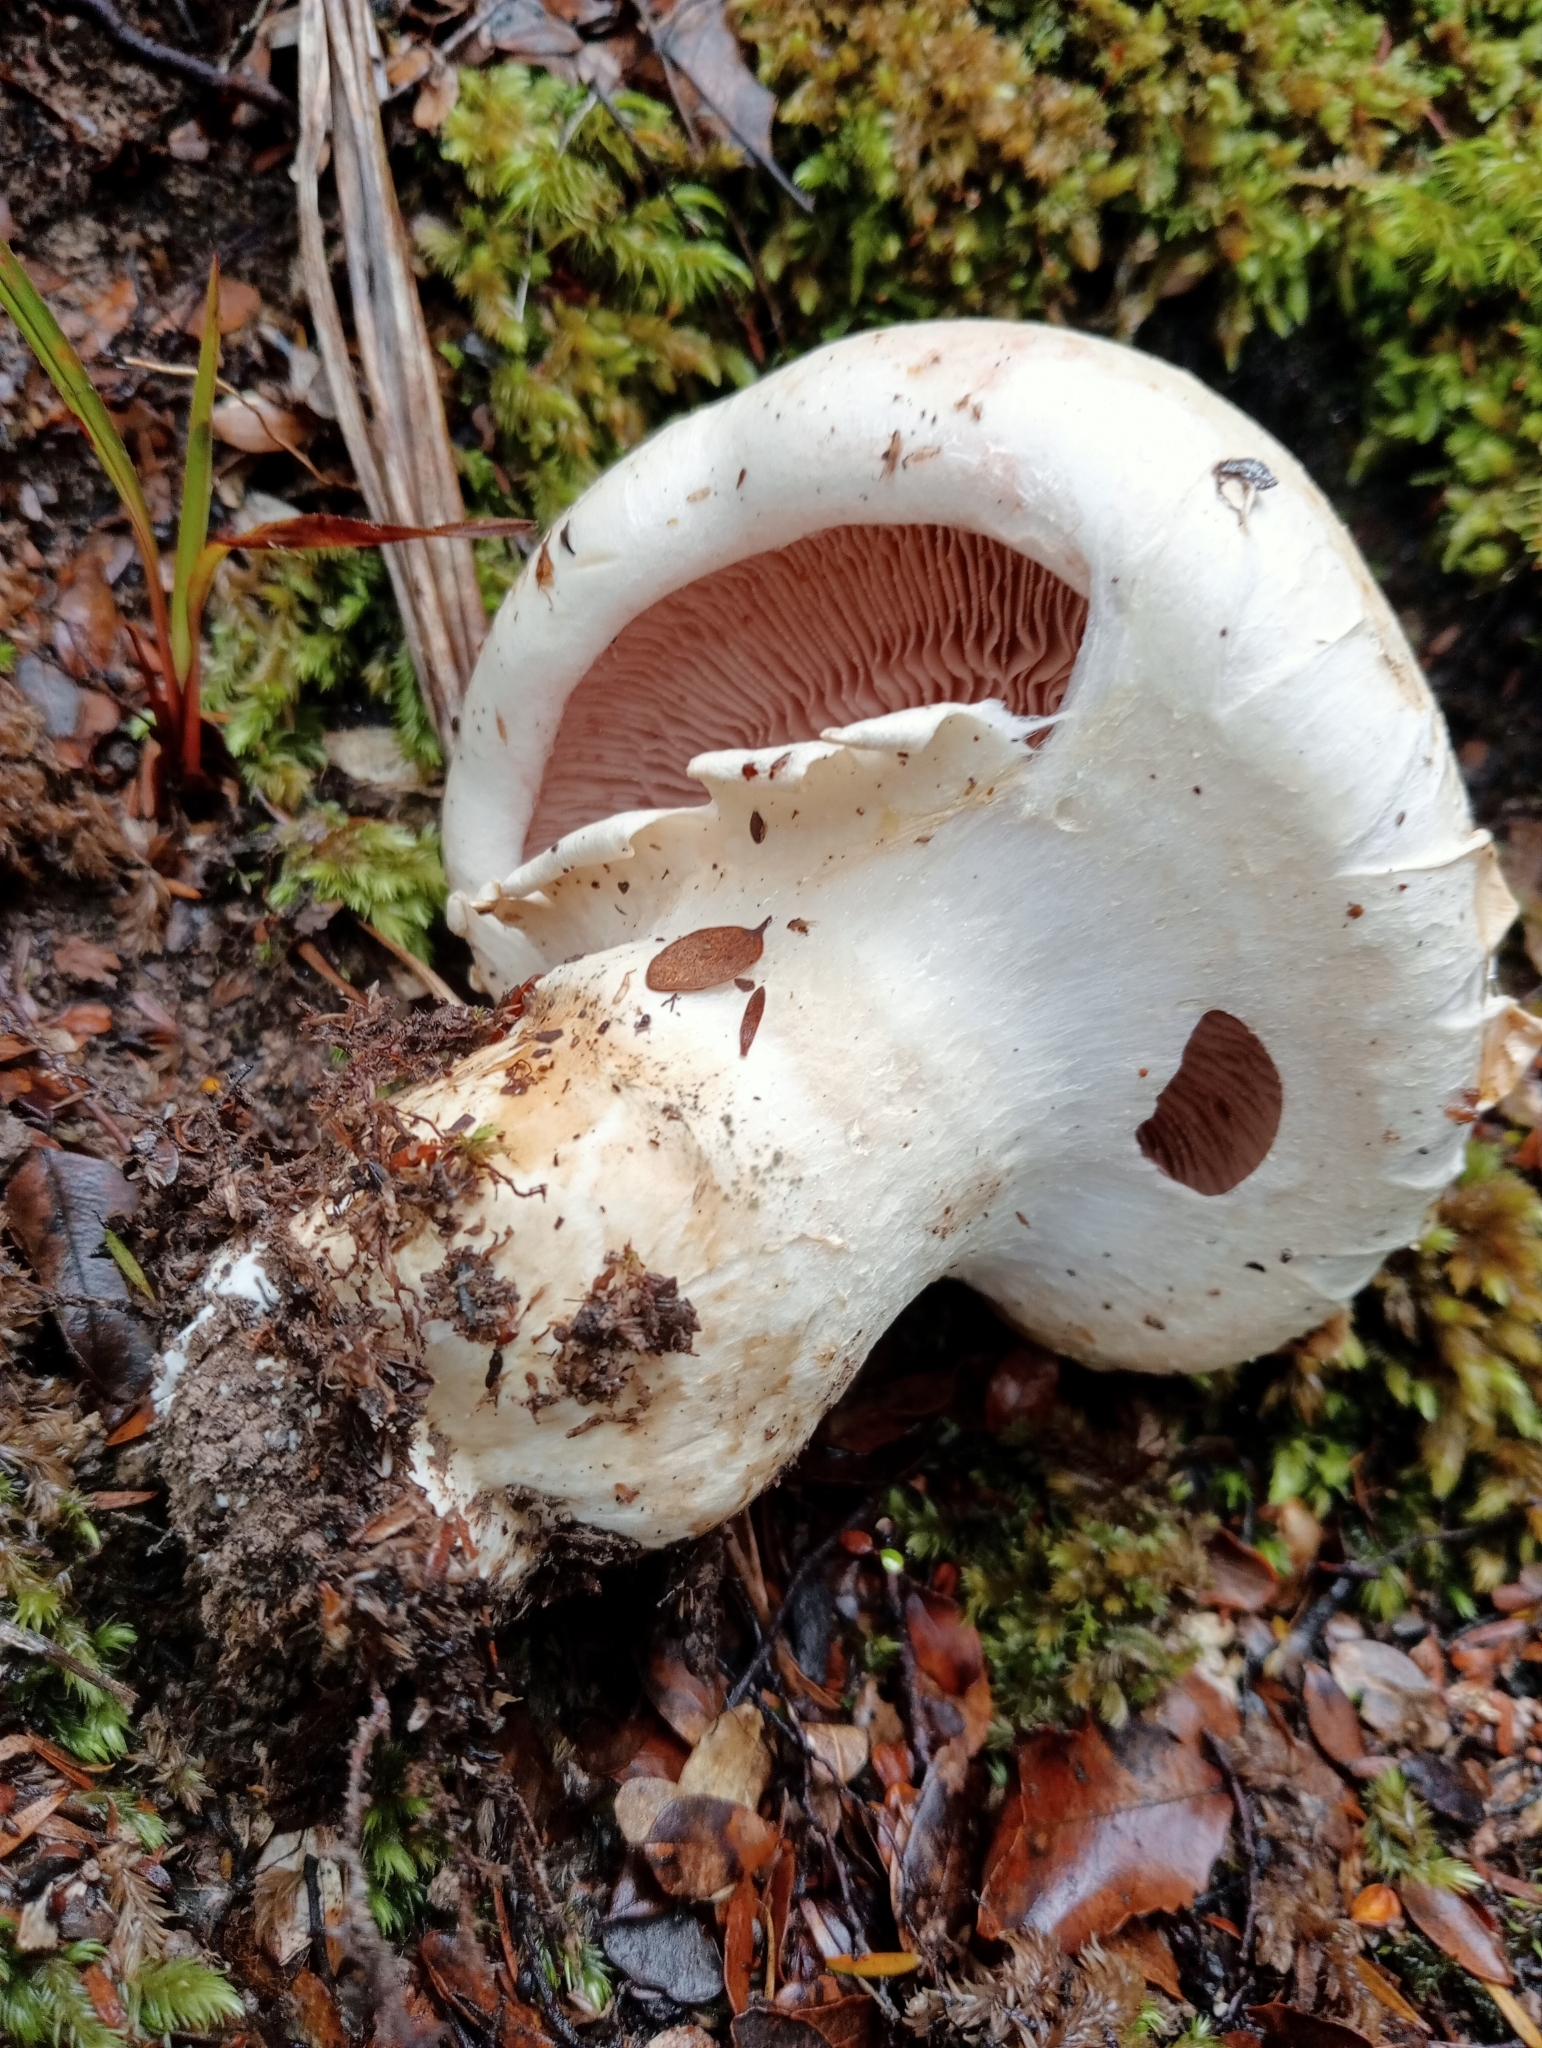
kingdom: Fungi
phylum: Basidiomycota
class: Agaricomycetes
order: Agaricales
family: Hymenogastraceae
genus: Hebeloma
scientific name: Hebeloma victoriense
